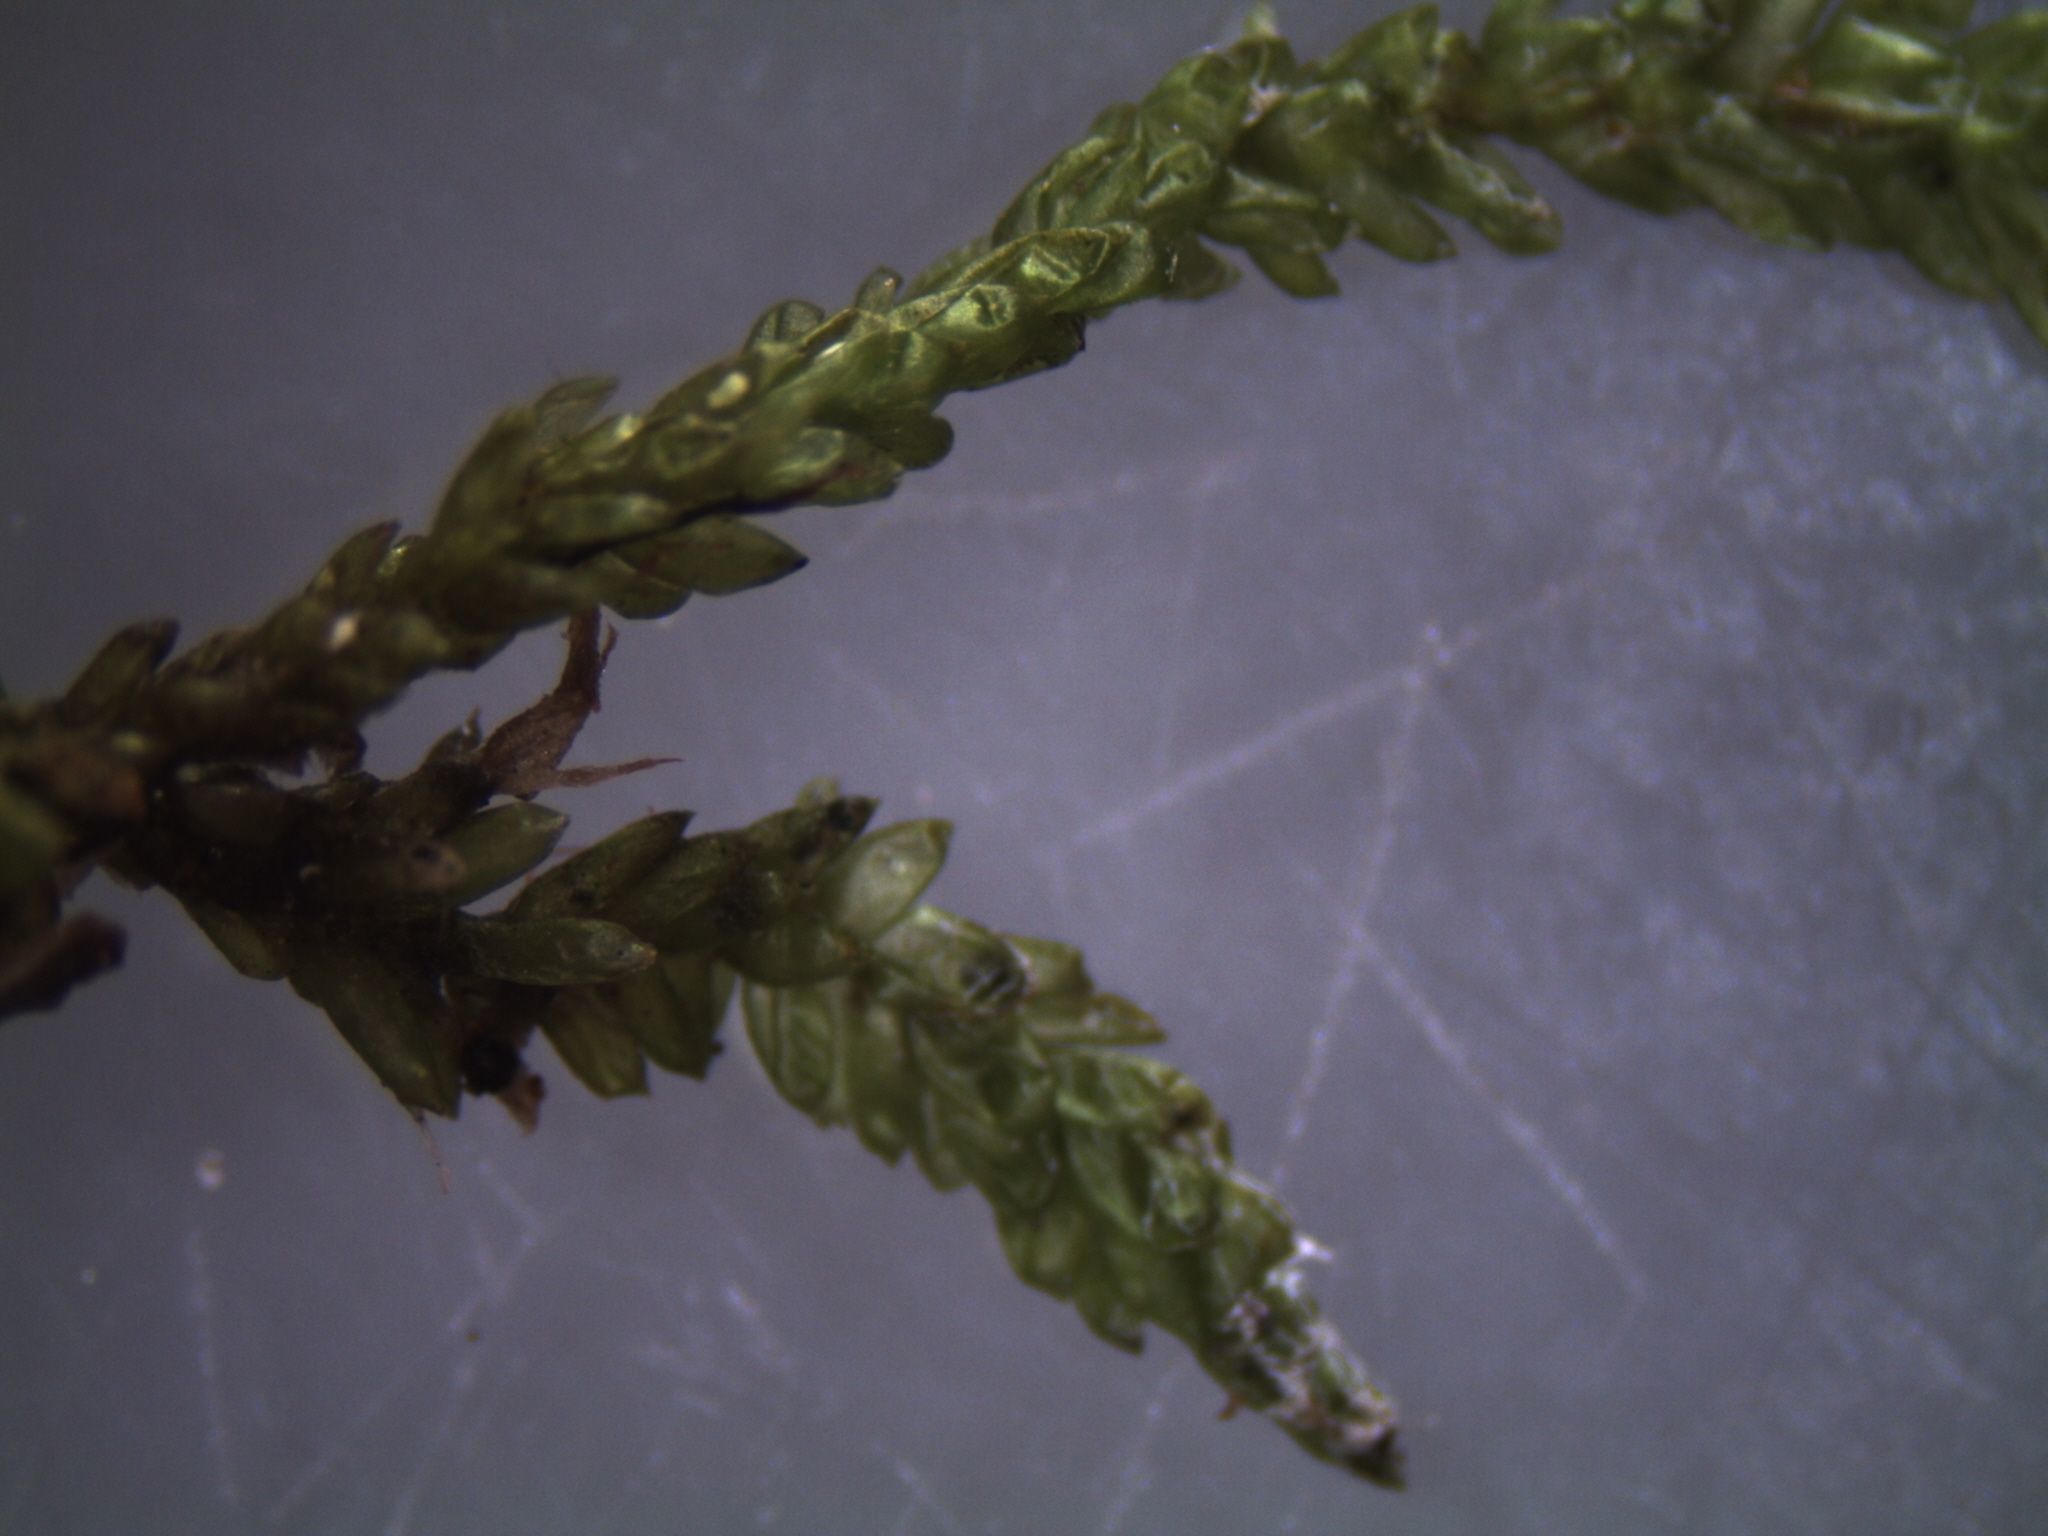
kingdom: Plantae
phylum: Bryophyta
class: Bryopsida
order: Hypnales
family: Lembophyllaceae
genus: Weymouthia
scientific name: Weymouthia cochlearifolia
